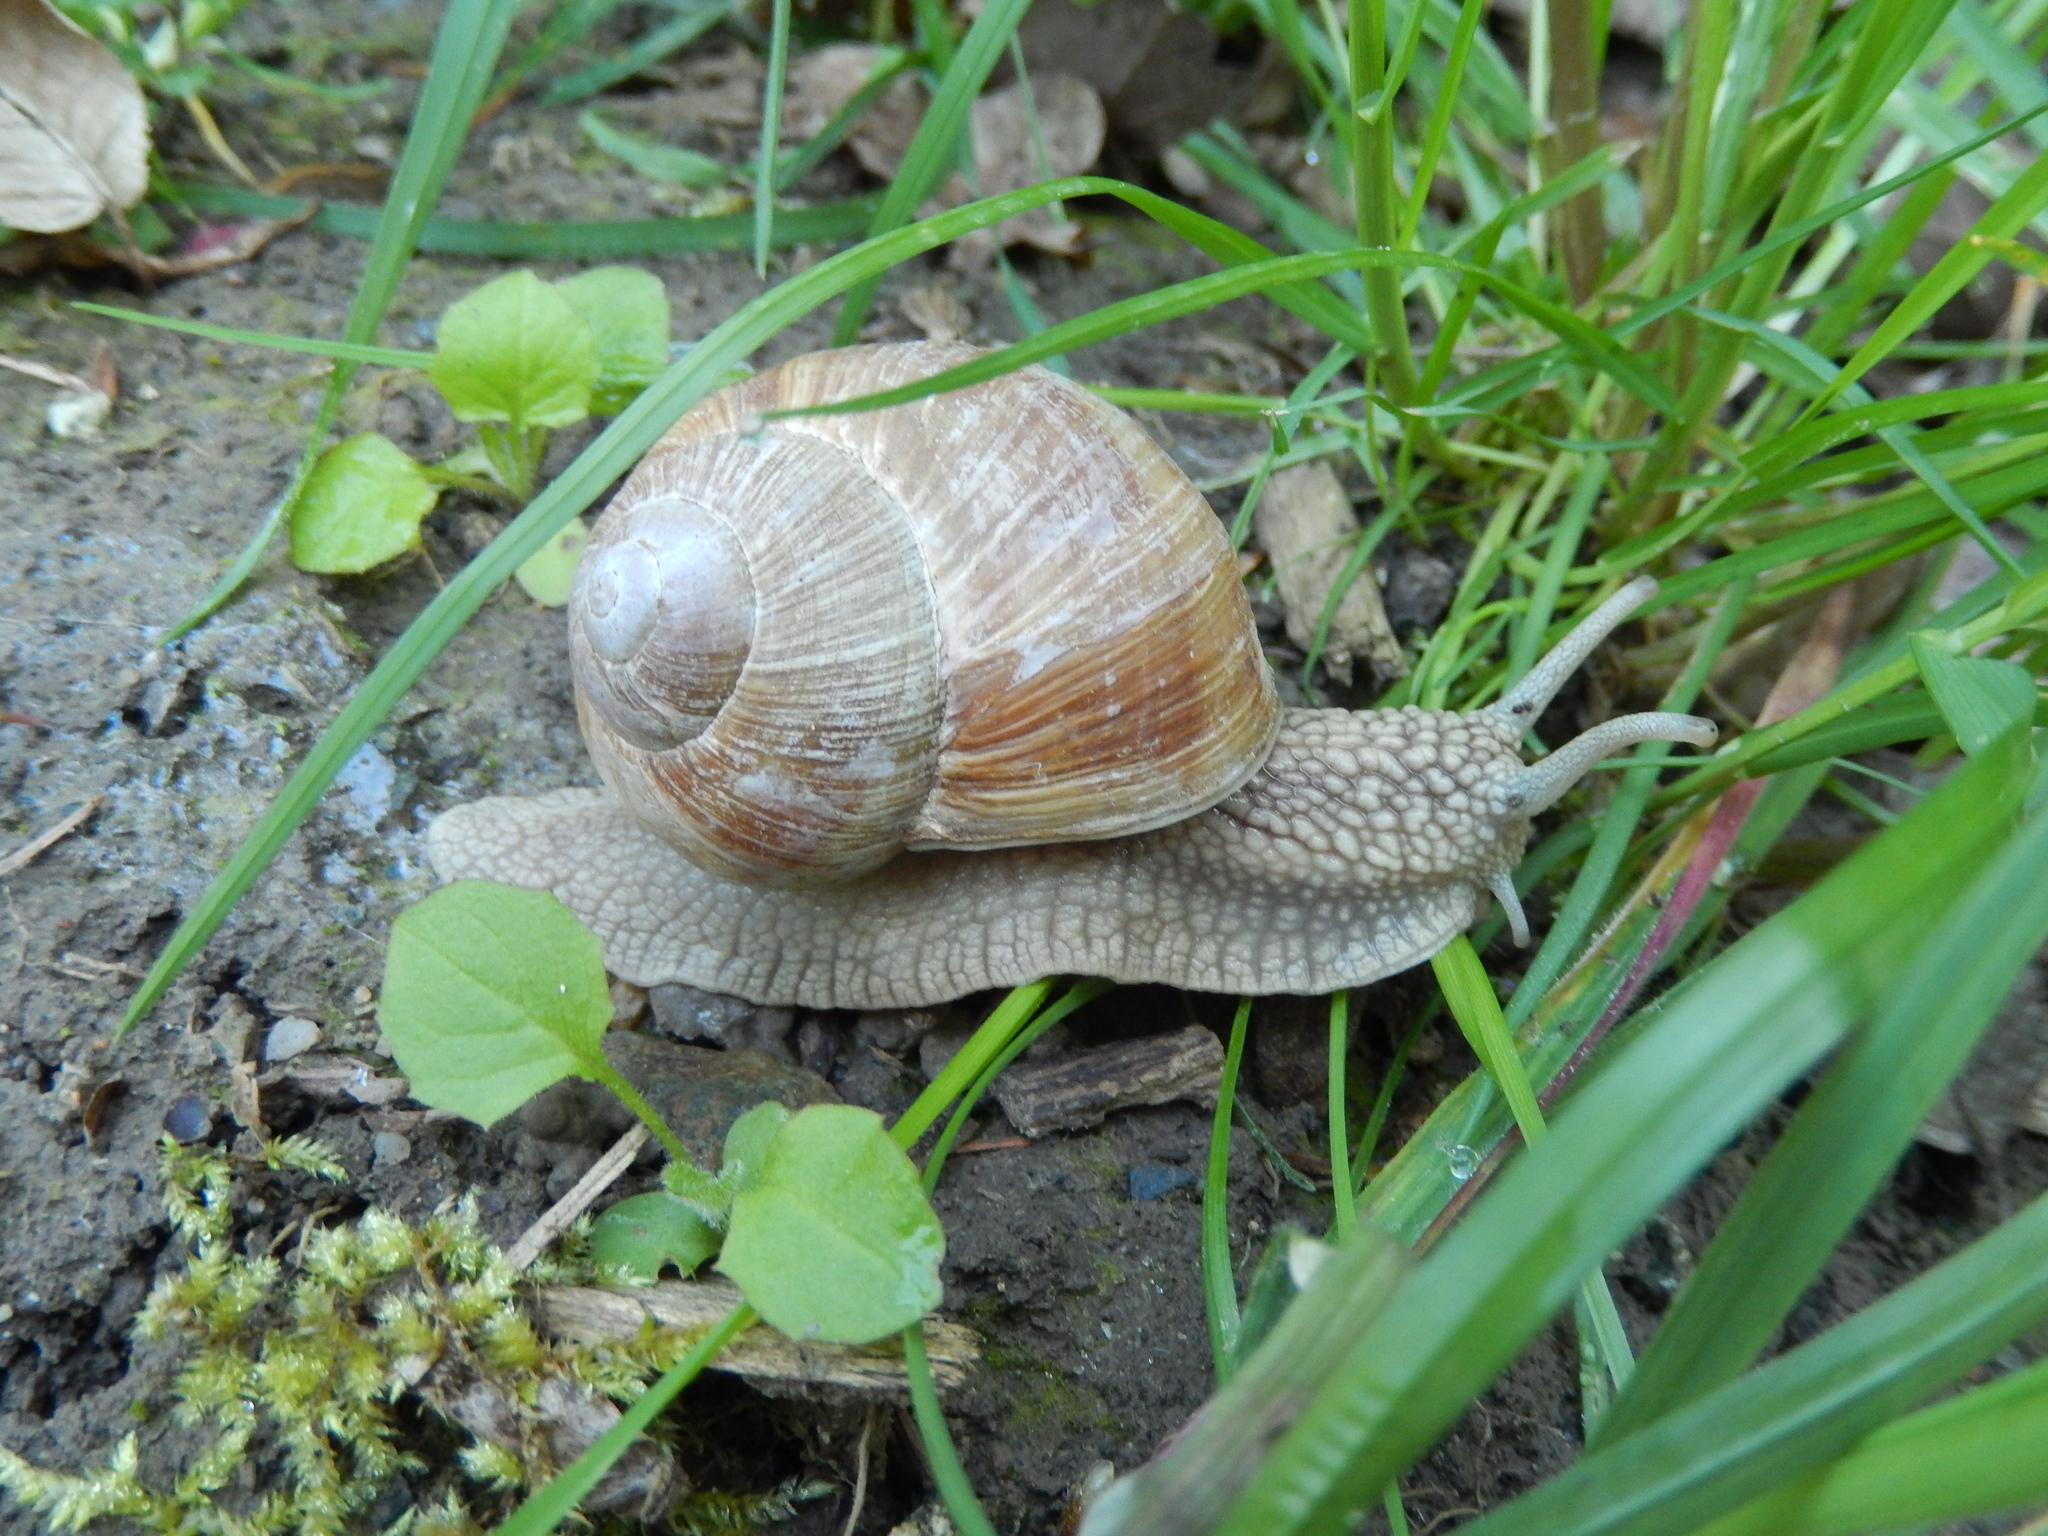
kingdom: Animalia
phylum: Mollusca
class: Gastropoda
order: Stylommatophora
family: Helicidae
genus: Helix
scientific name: Helix pomatia
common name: Roman snail
